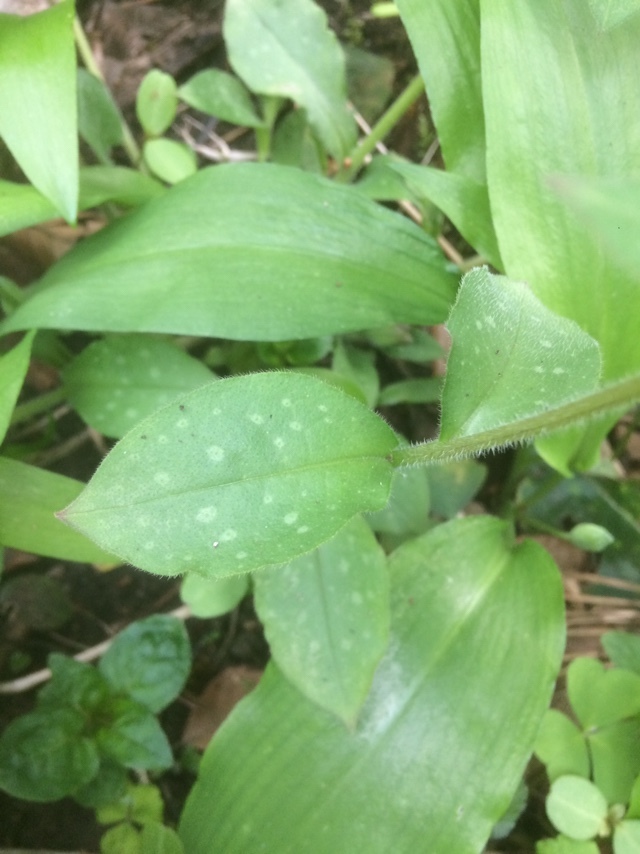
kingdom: Plantae
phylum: Tracheophyta
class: Magnoliopsida
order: Boraginales
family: Boraginaceae
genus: Pulmonaria
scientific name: Pulmonaria officinalis
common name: Lungwort
